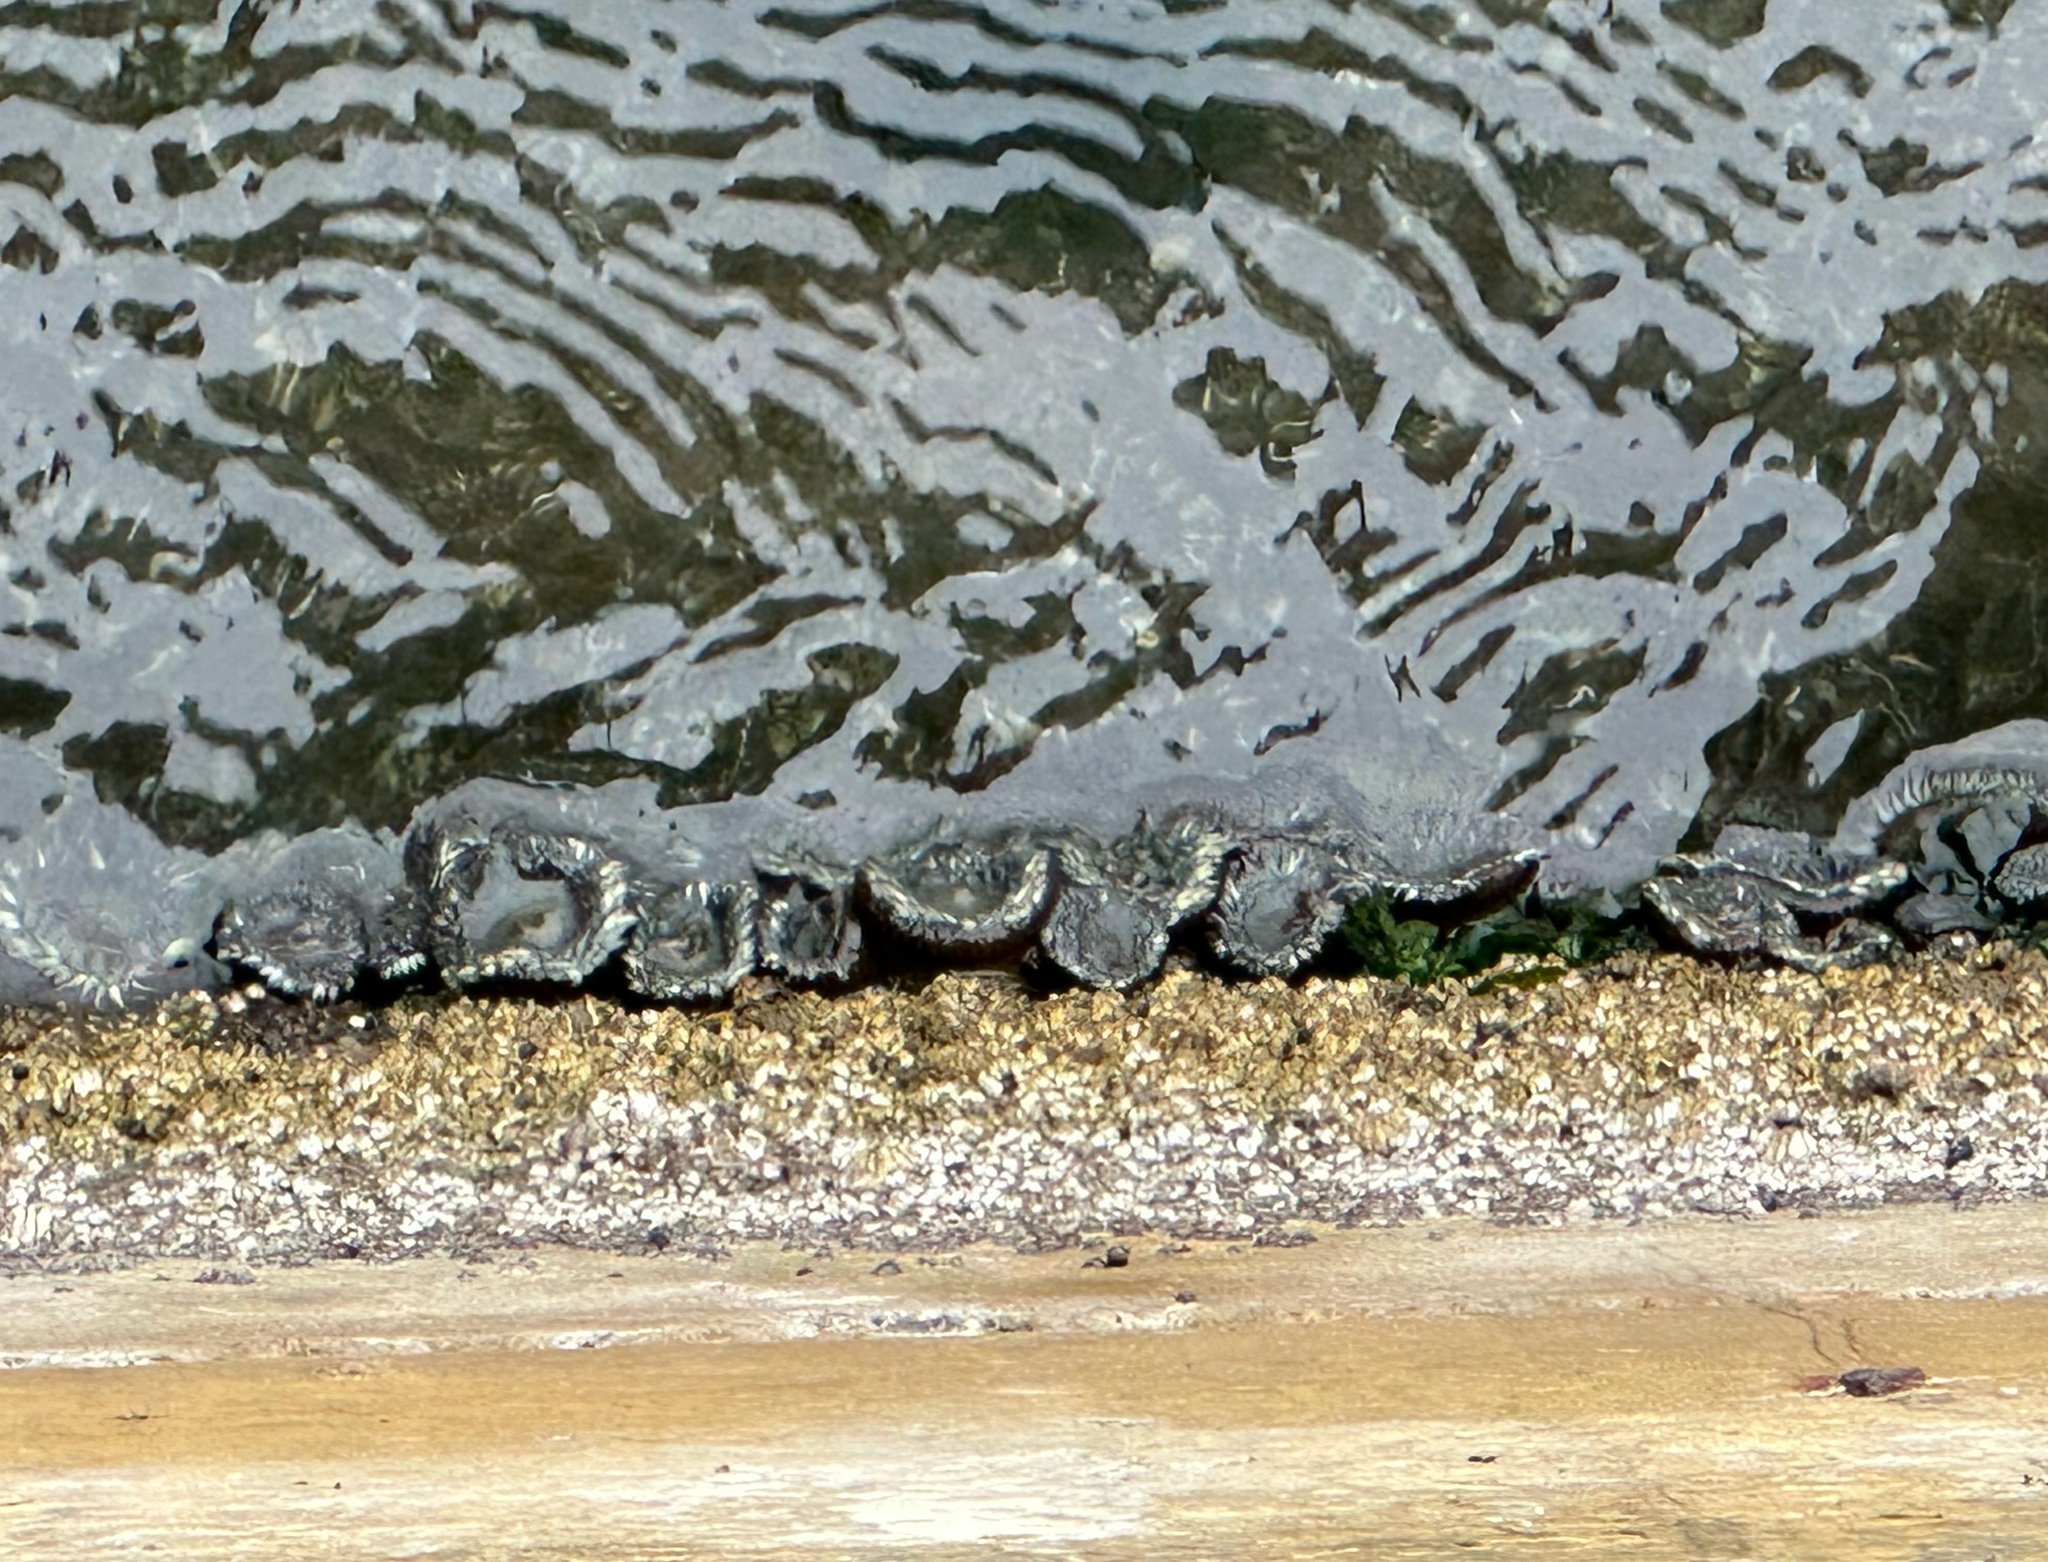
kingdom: Animalia
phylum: Cnidaria
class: Anthozoa
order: Actiniaria
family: Actiniidae
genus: Anthopleura
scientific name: Anthopleura elegantissima
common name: Clonal anemone
